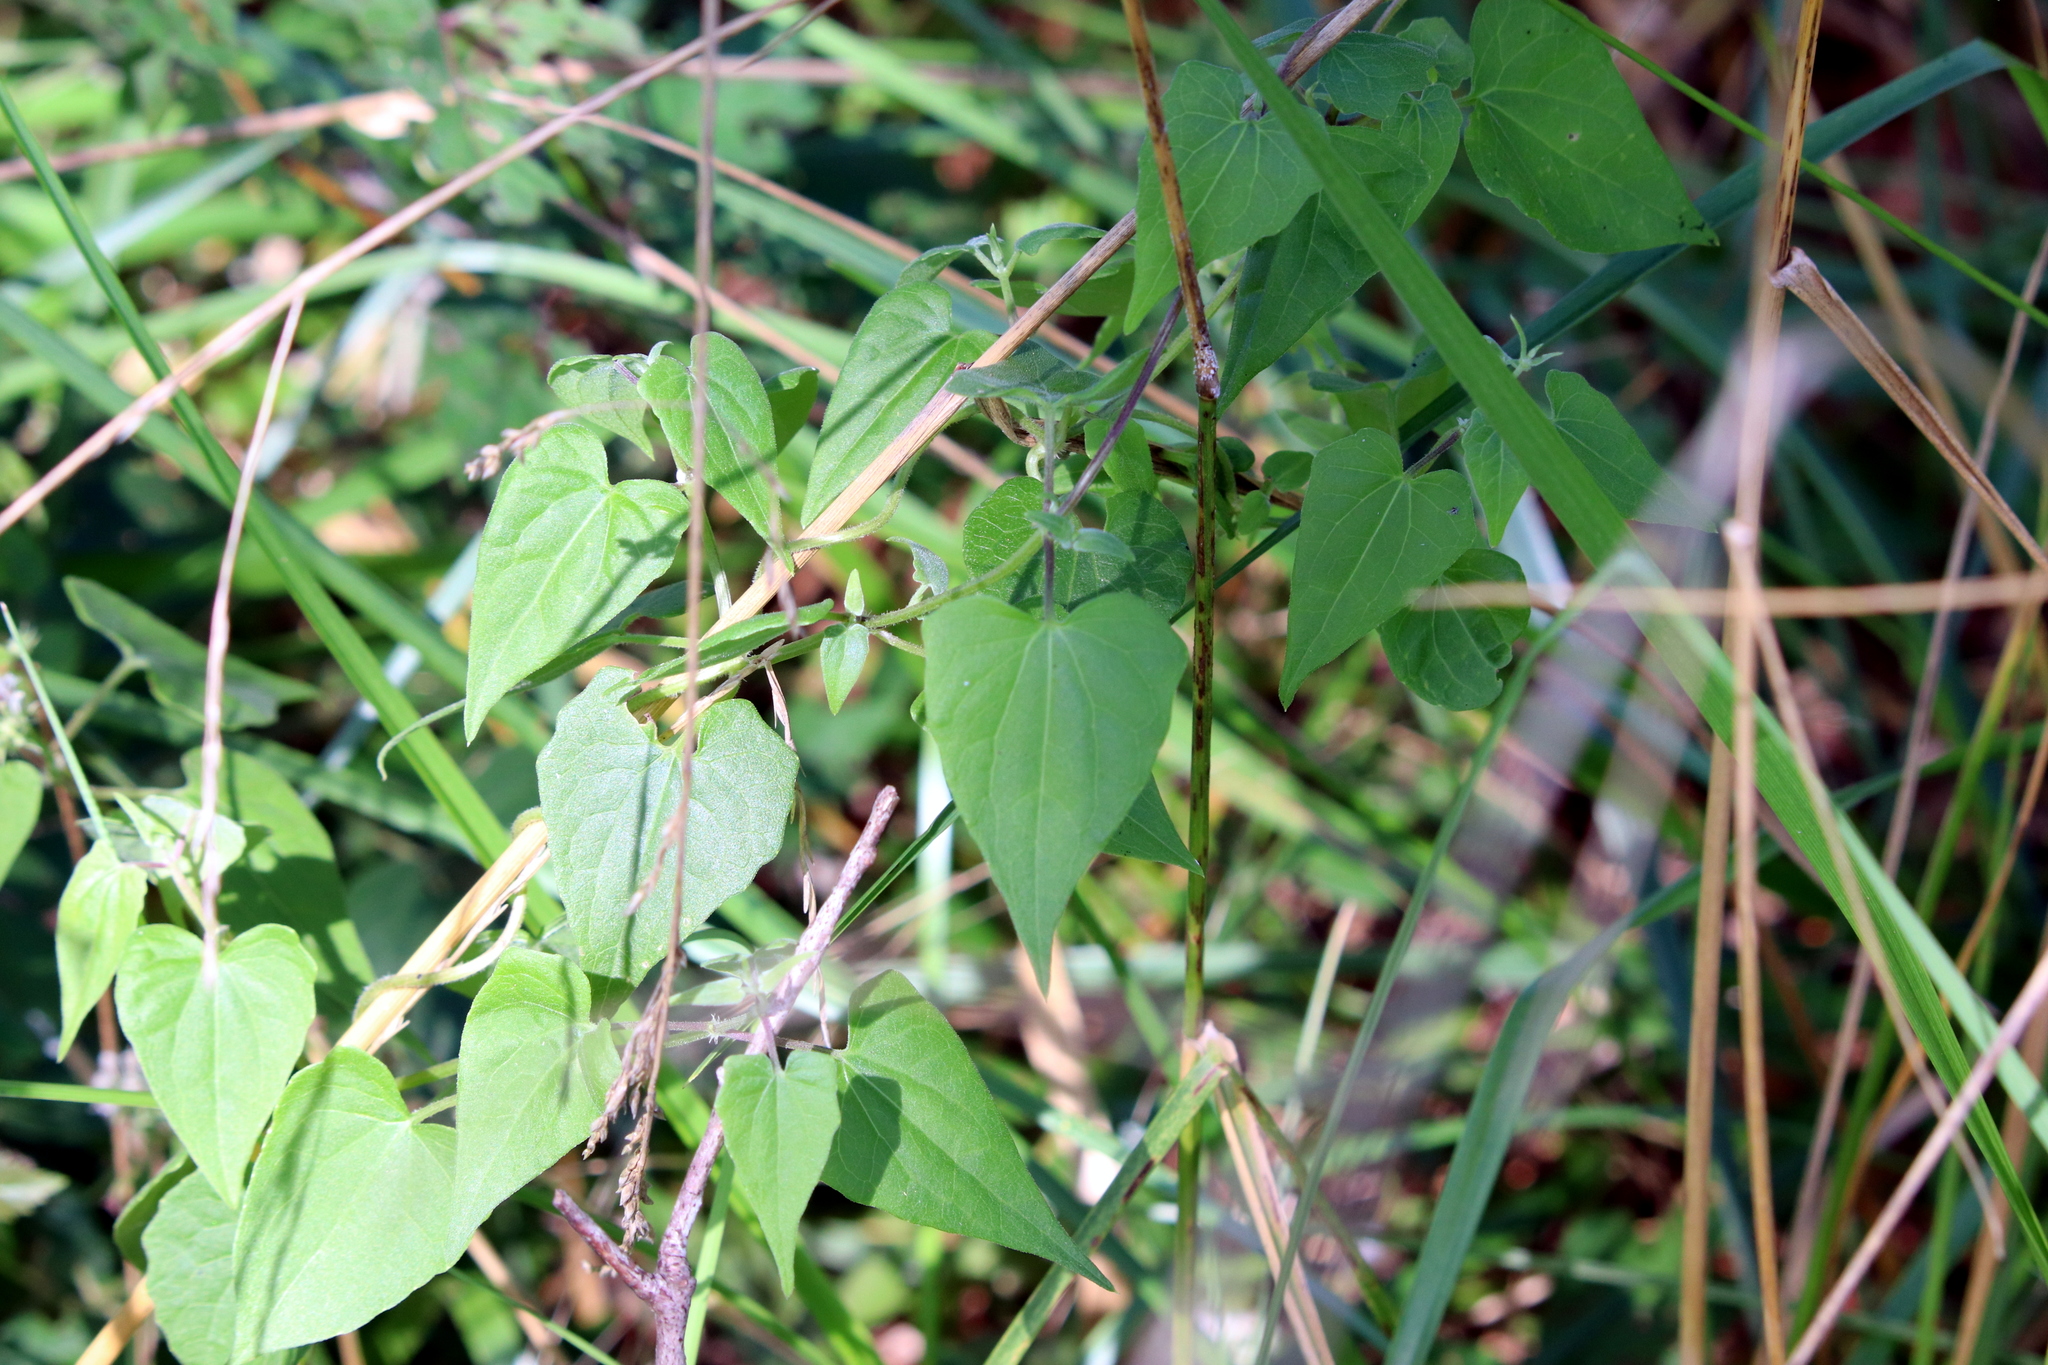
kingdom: Plantae
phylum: Tracheophyta
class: Magnoliopsida
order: Asterales
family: Asteraceae
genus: Mikania
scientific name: Mikania scandens
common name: Climbing hempvine
